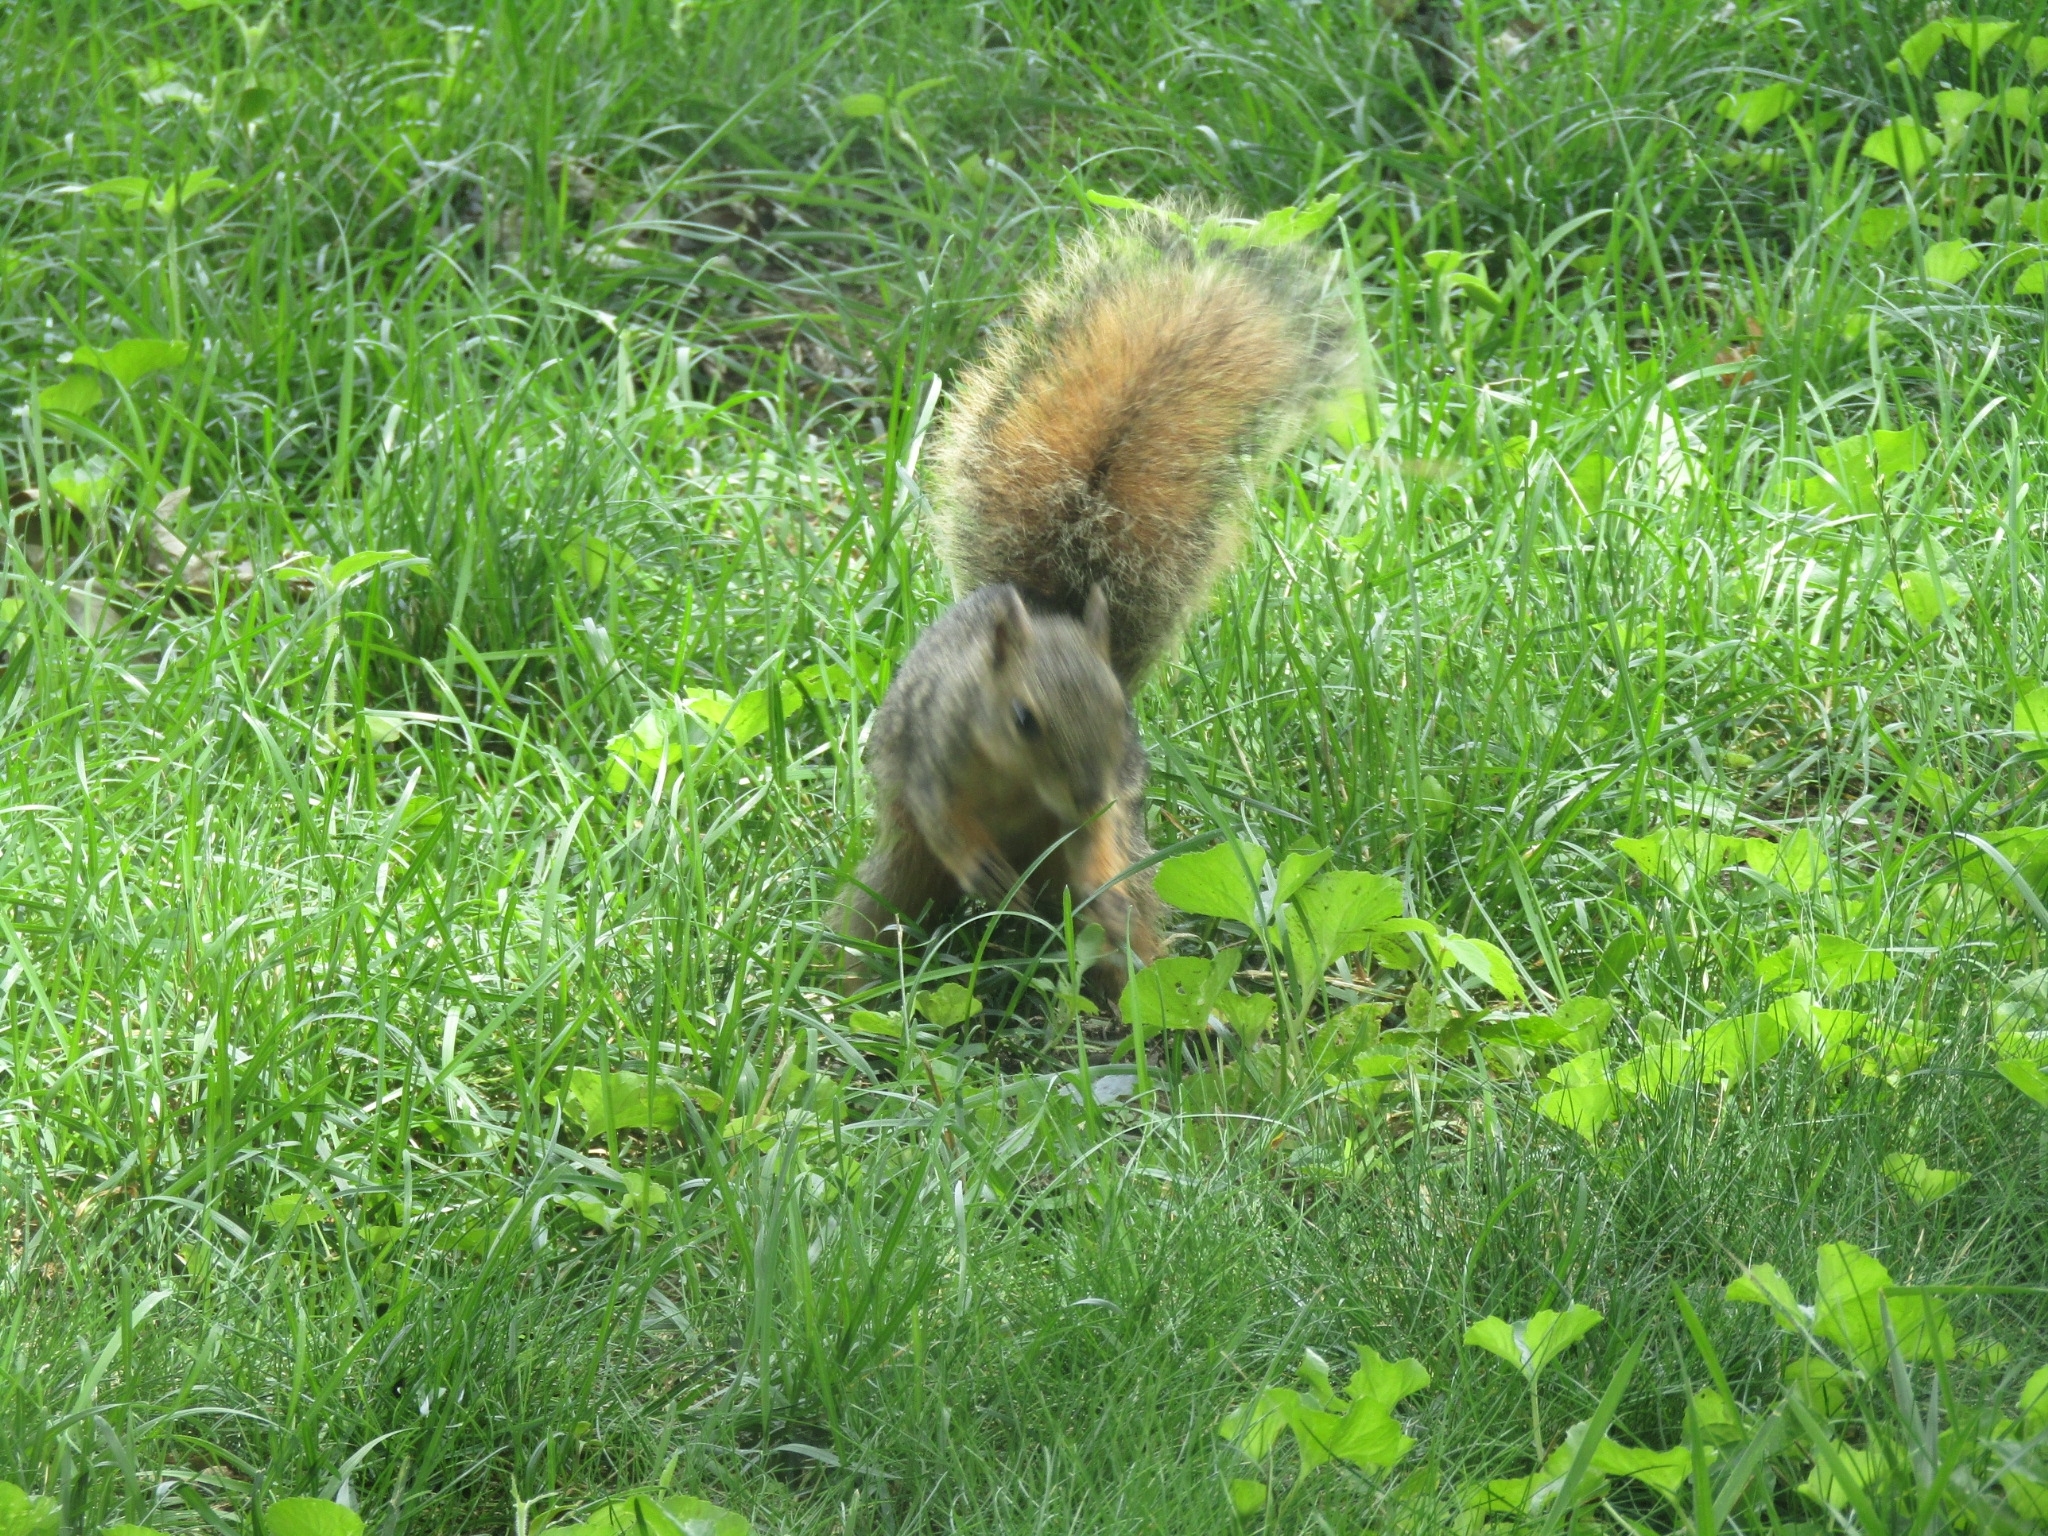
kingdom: Animalia
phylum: Chordata
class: Mammalia
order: Rodentia
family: Sciuridae
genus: Sciurus
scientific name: Sciurus niger
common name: Fox squirrel
